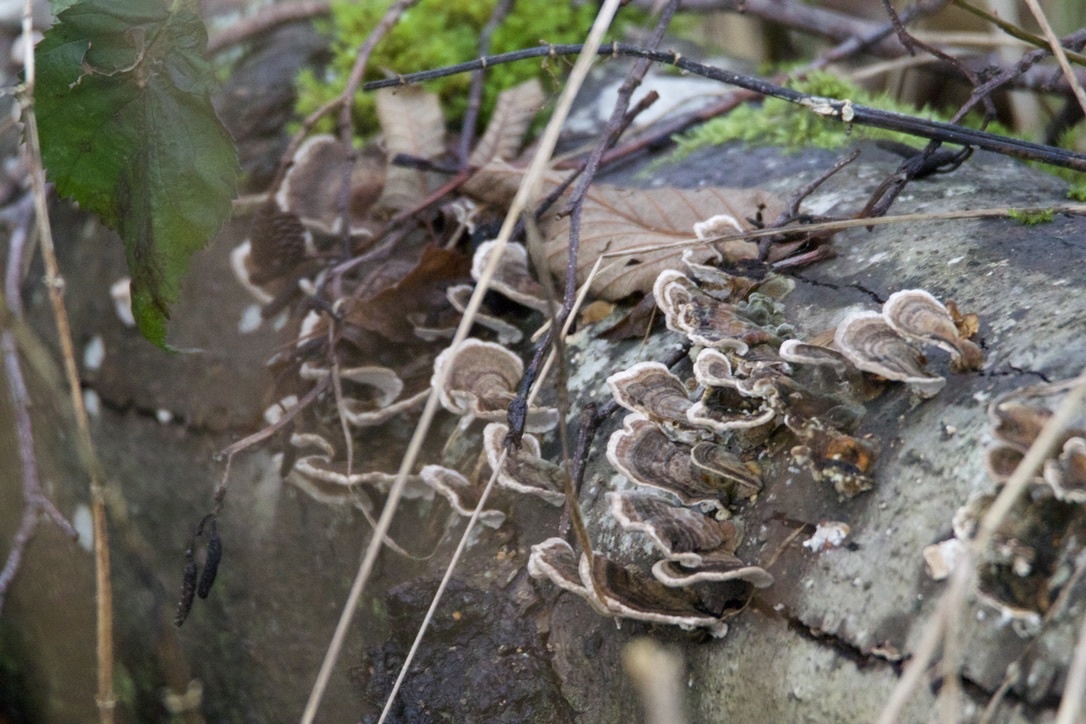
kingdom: Fungi
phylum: Basidiomycota
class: Agaricomycetes
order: Polyporales
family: Polyporaceae
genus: Trametes
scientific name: Trametes versicolor
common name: Turkeytail
